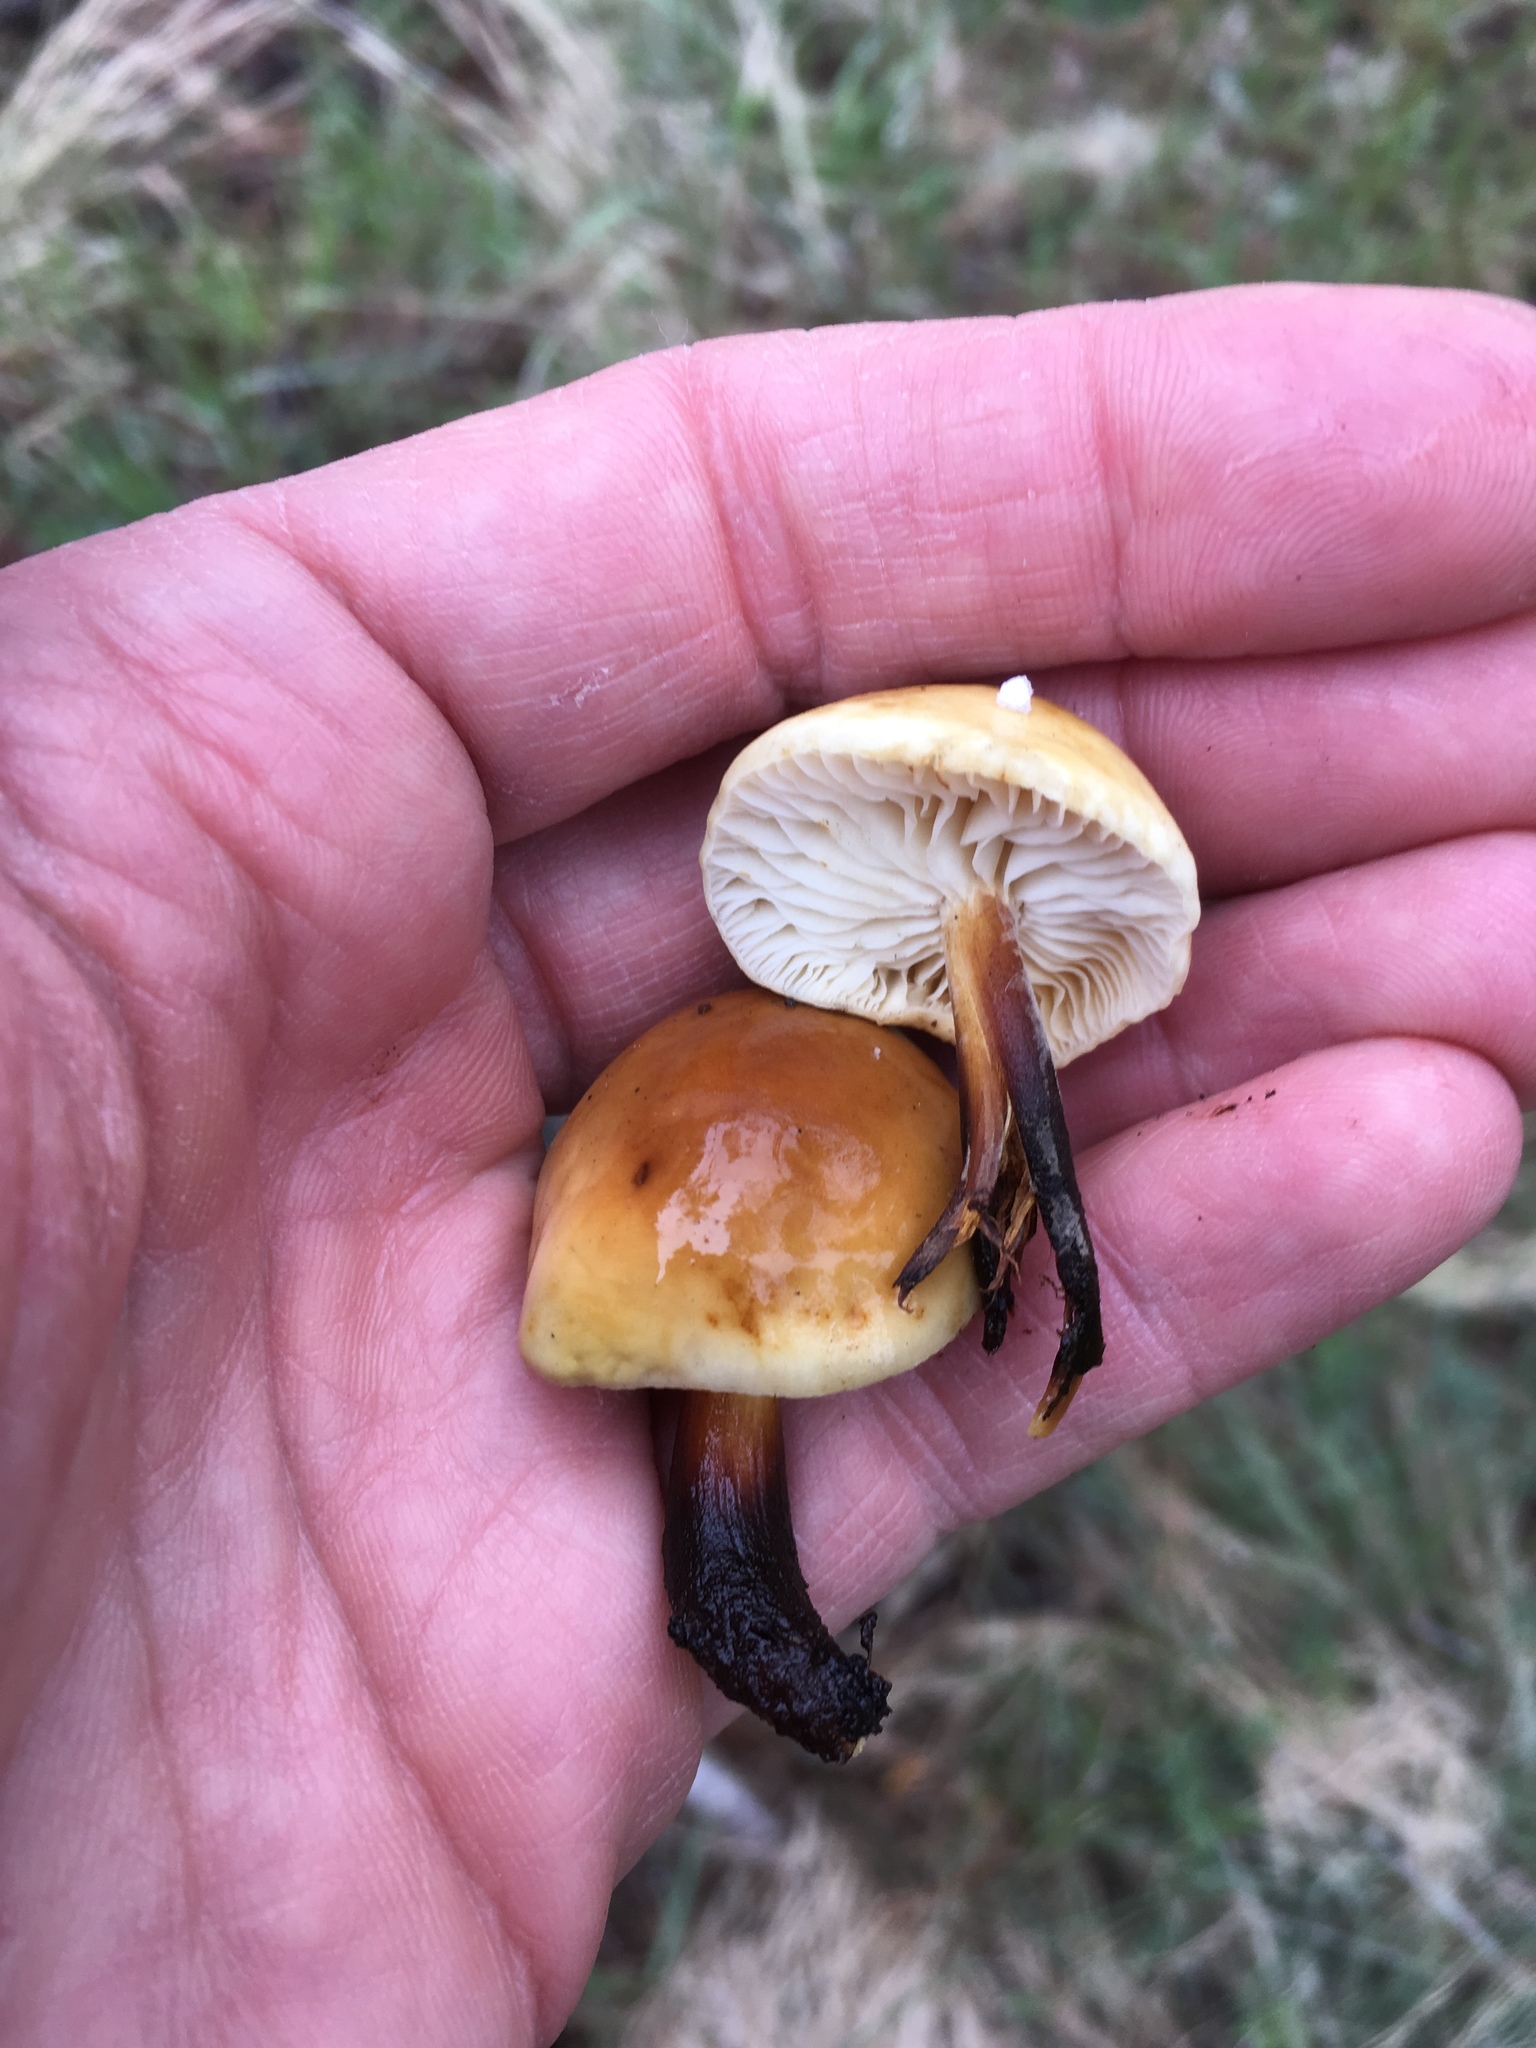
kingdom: Fungi
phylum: Basidiomycota
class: Agaricomycetes
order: Agaricales
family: Physalacriaceae
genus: Flammulina
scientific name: Flammulina populicola
